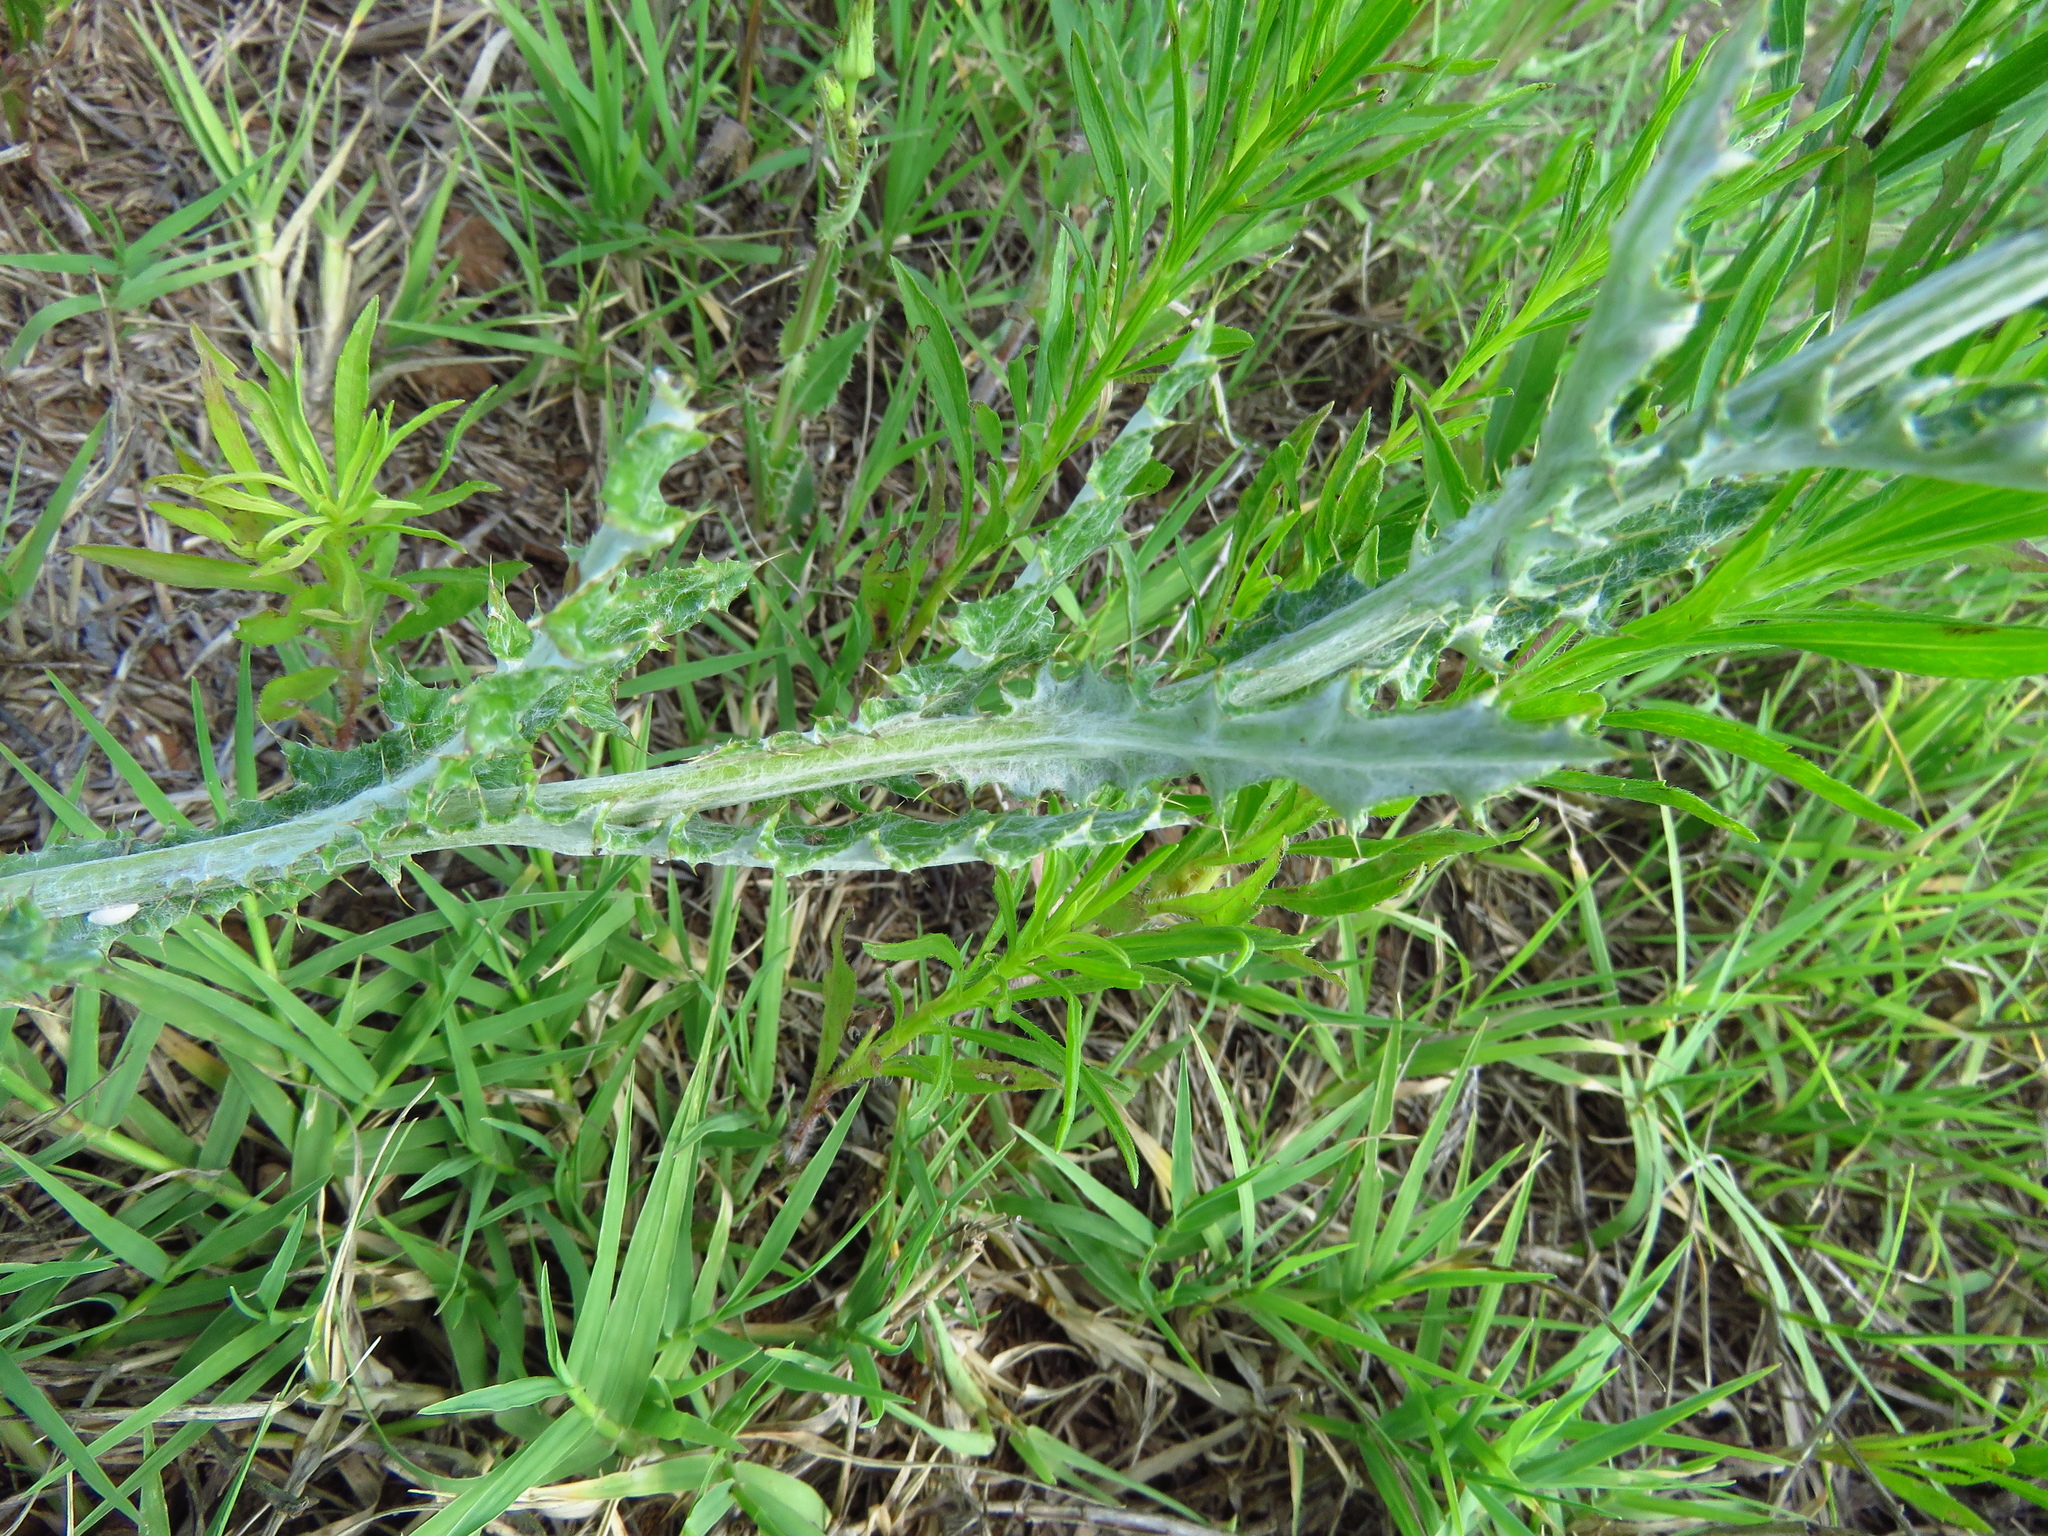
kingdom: Plantae
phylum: Tracheophyta
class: Magnoliopsida
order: Asterales
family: Asteraceae
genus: Cirsium
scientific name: Cirsium texanum
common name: Texas purple thistle
